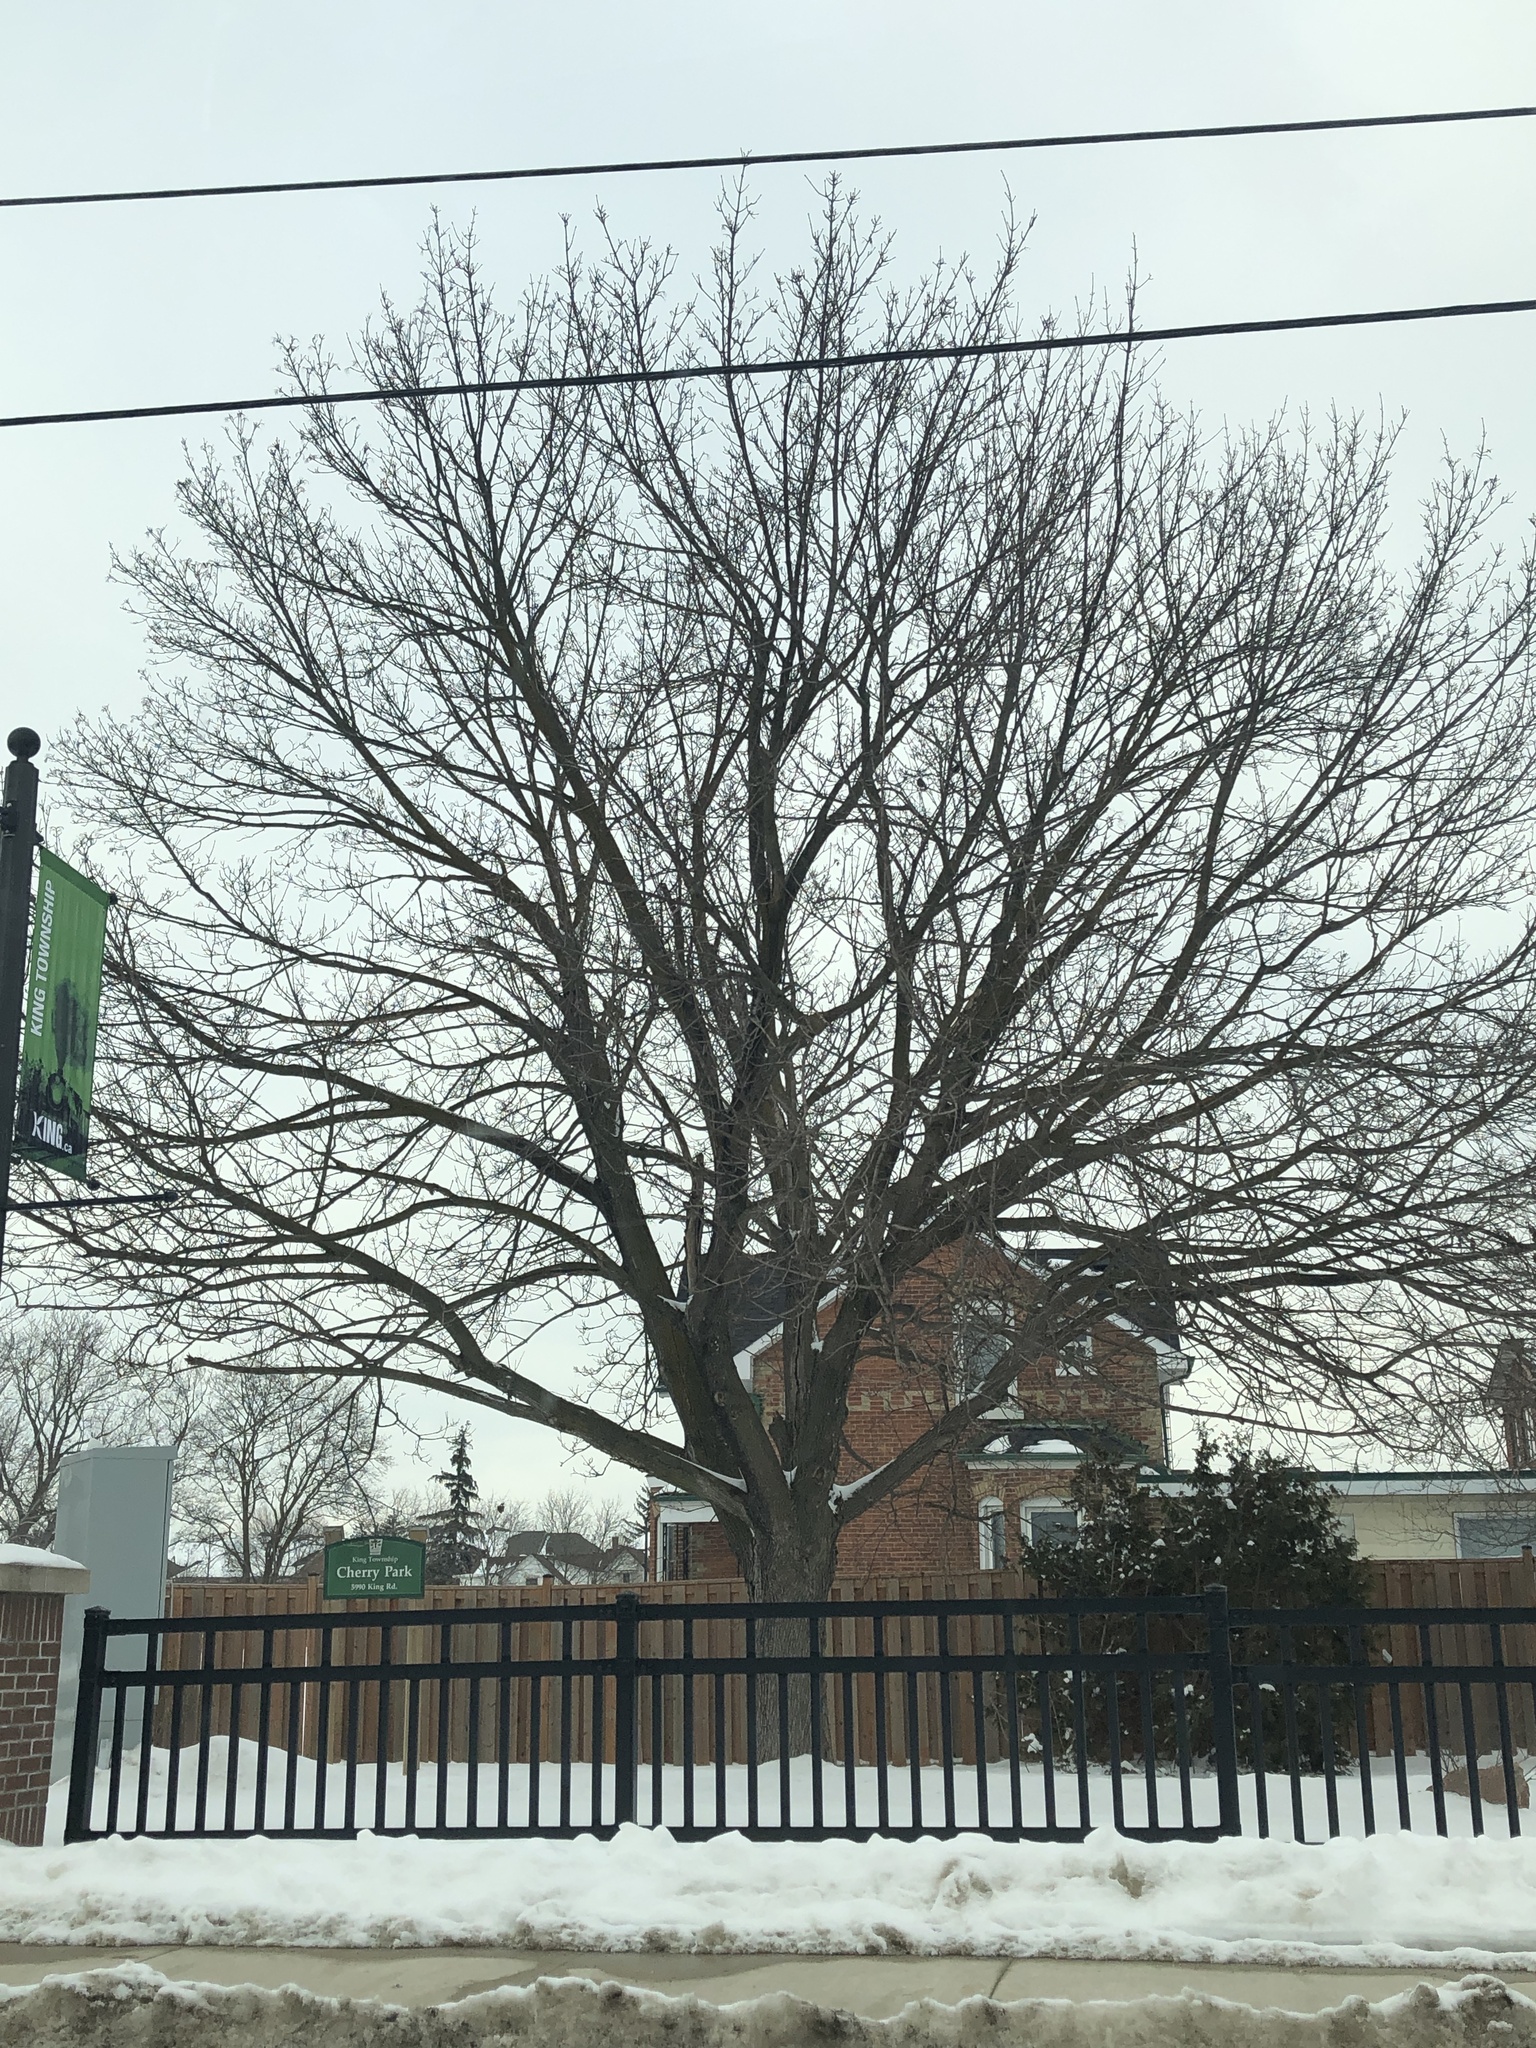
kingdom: Plantae
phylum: Tracheophyta
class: Magnoliopsida
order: Sapindales
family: Sapindaceae
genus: Acer
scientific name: Acer platanoides
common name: Norway maple
